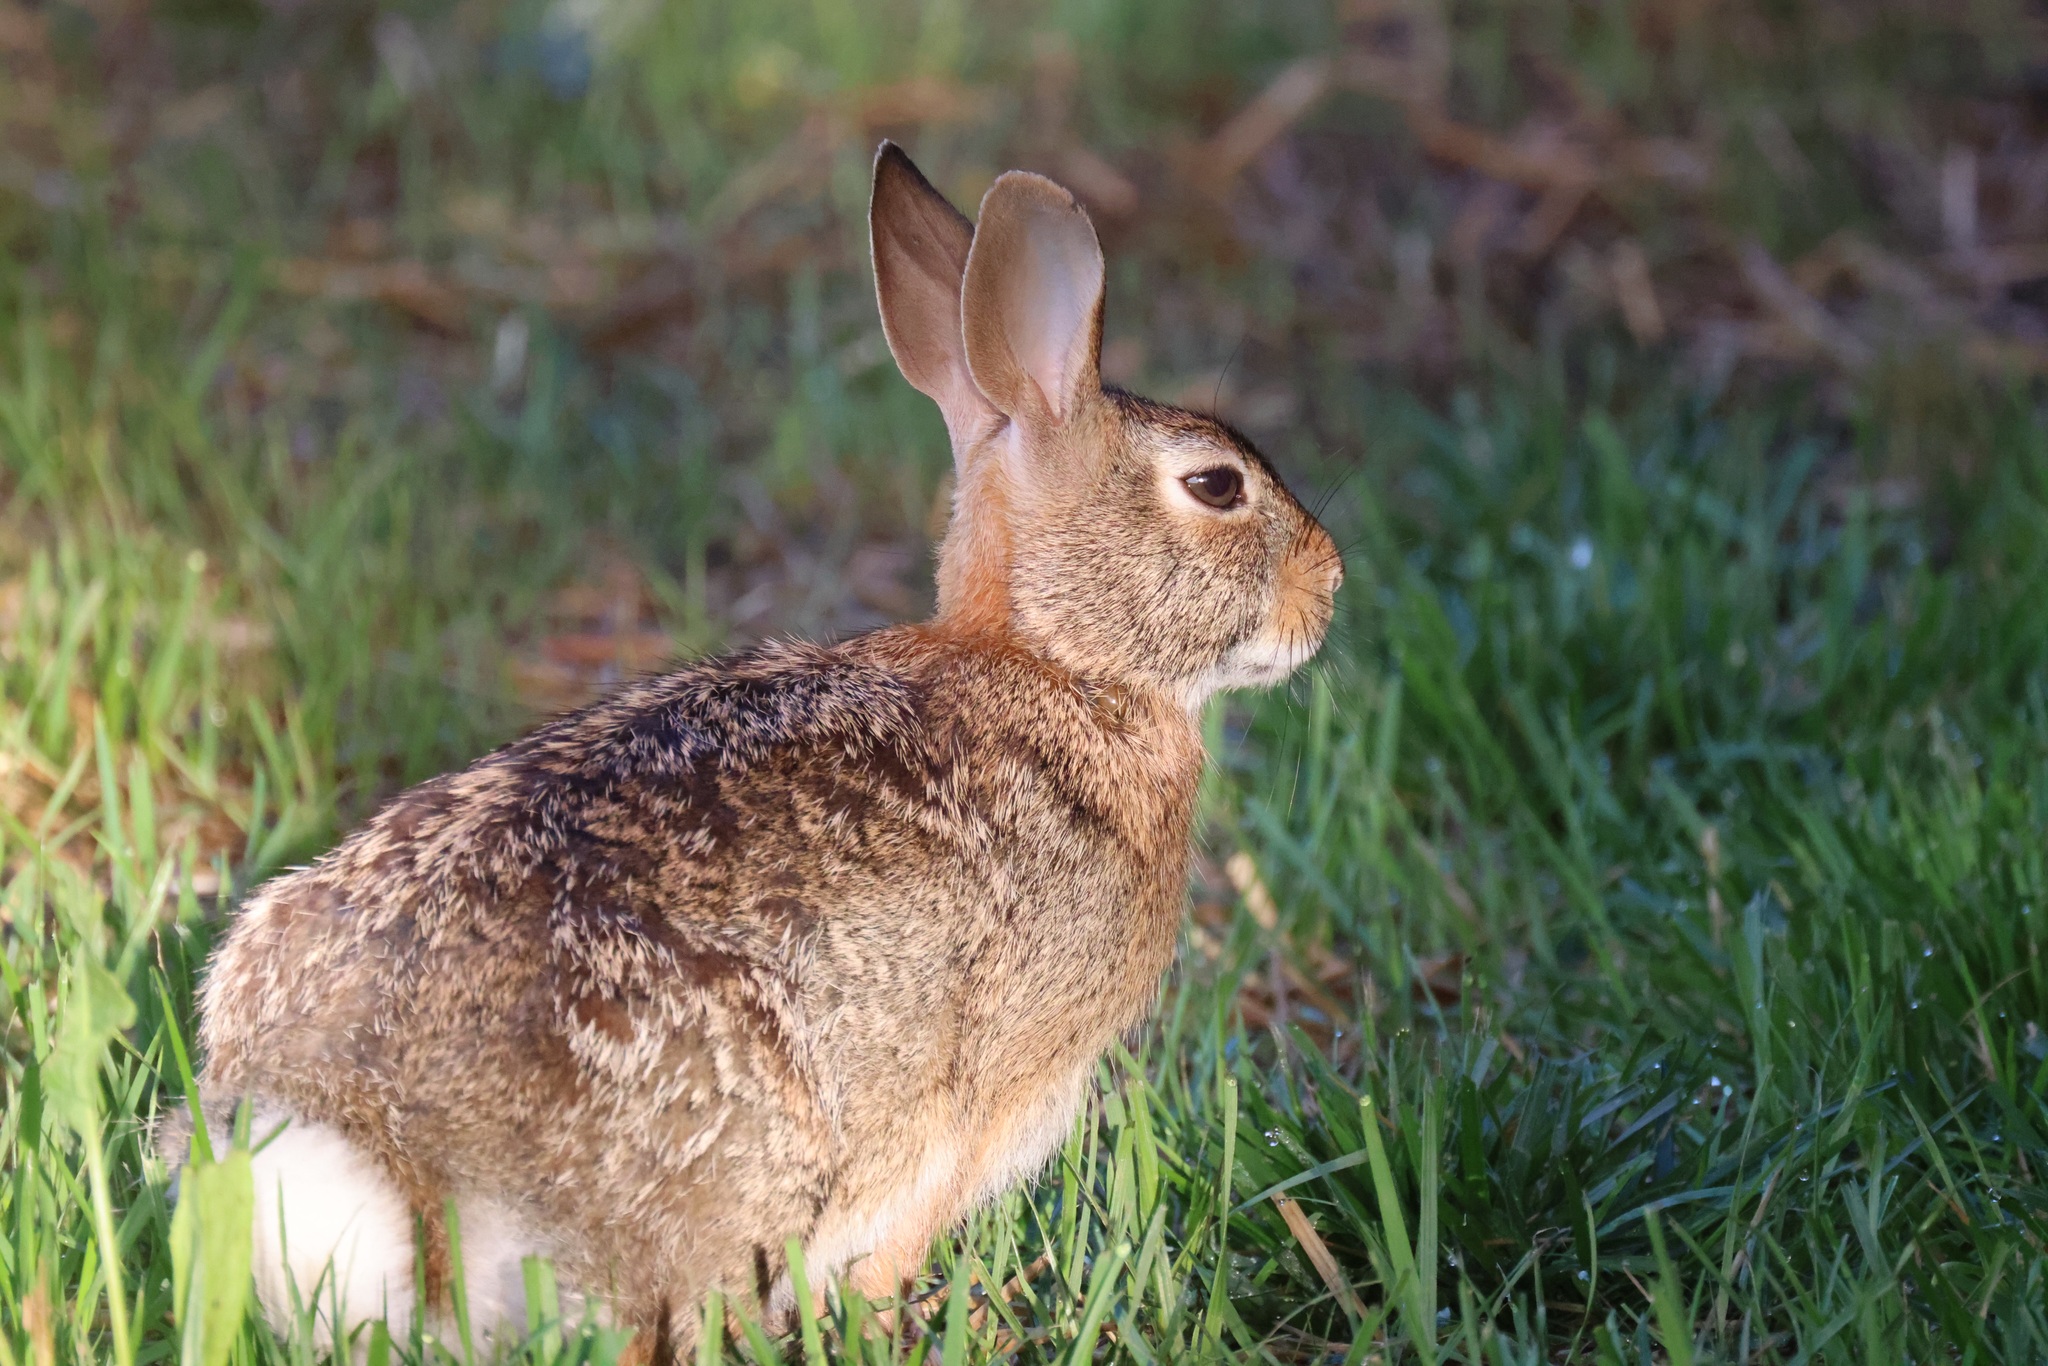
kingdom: Animalia
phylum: Chordata
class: Mammalia
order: Lagomorpha
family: Leporidae
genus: Sylvilagus
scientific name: Sylvilagus floridanus
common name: Eastern cottontail
